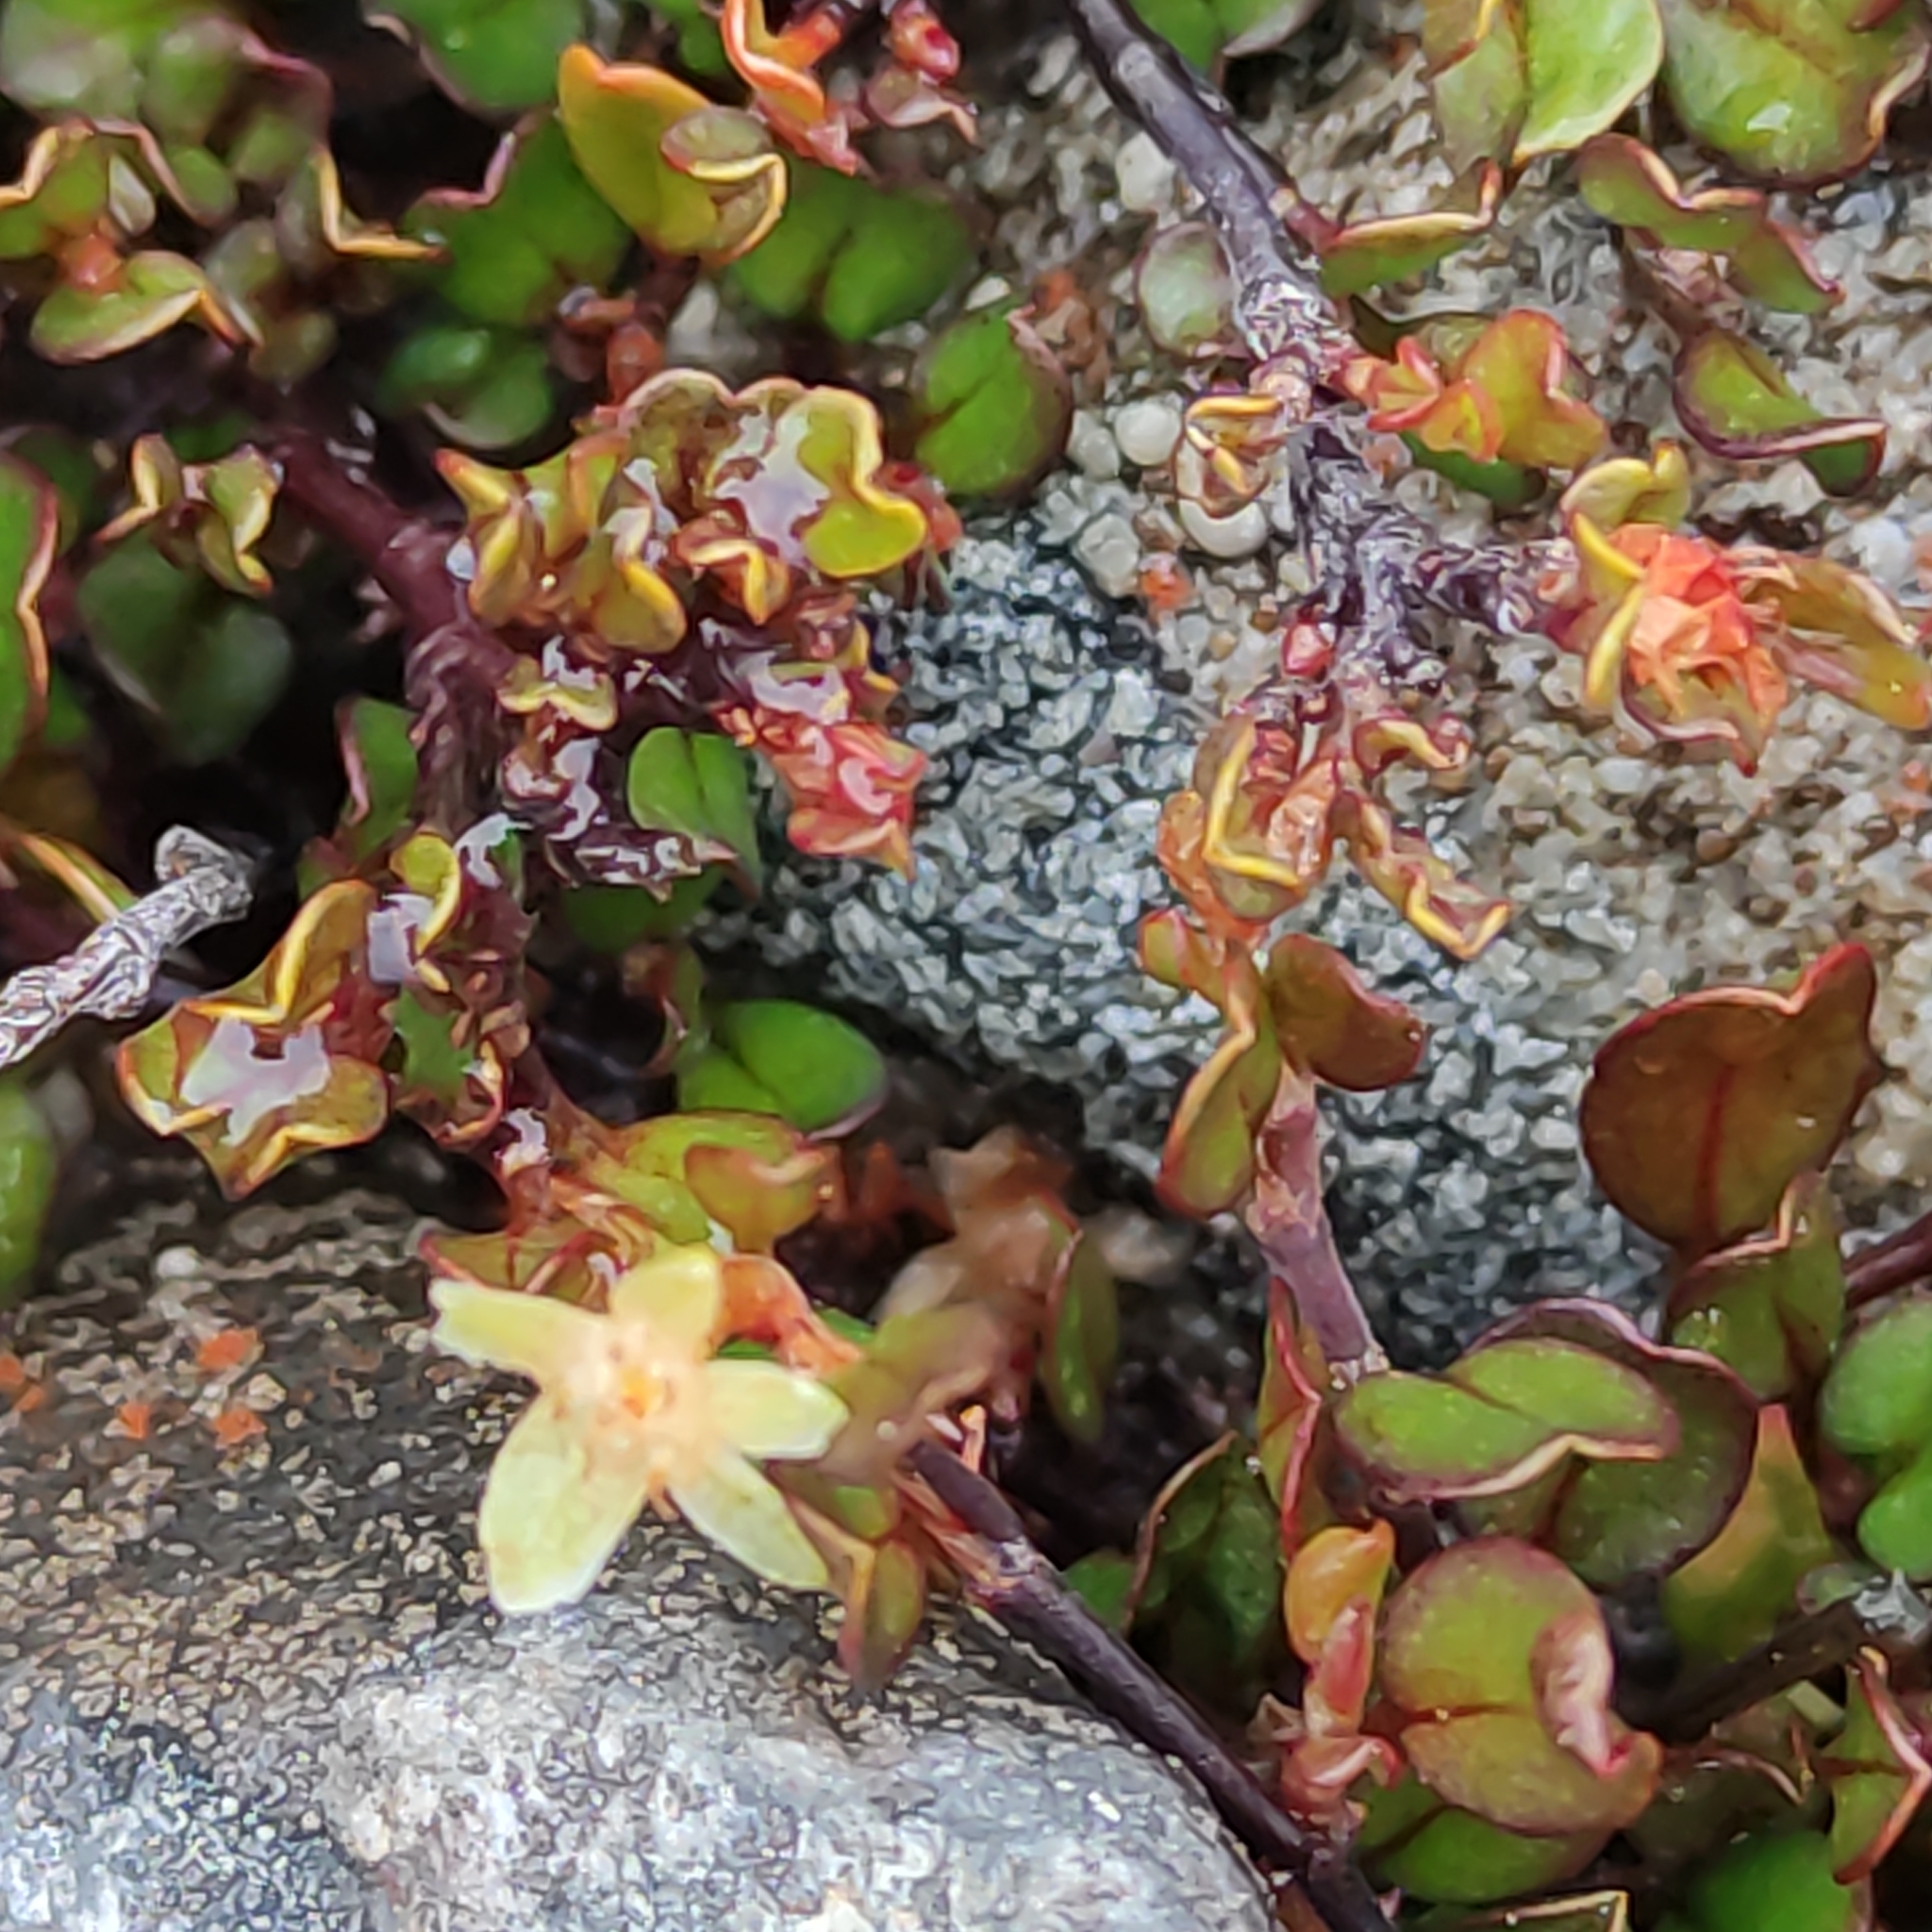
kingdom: Plantae
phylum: Tracheophyta
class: Magnoliopsida
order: Caryophyllales
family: Polygonaceae
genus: Muehlenbeckia
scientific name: Muehlenbeckia axillaris
